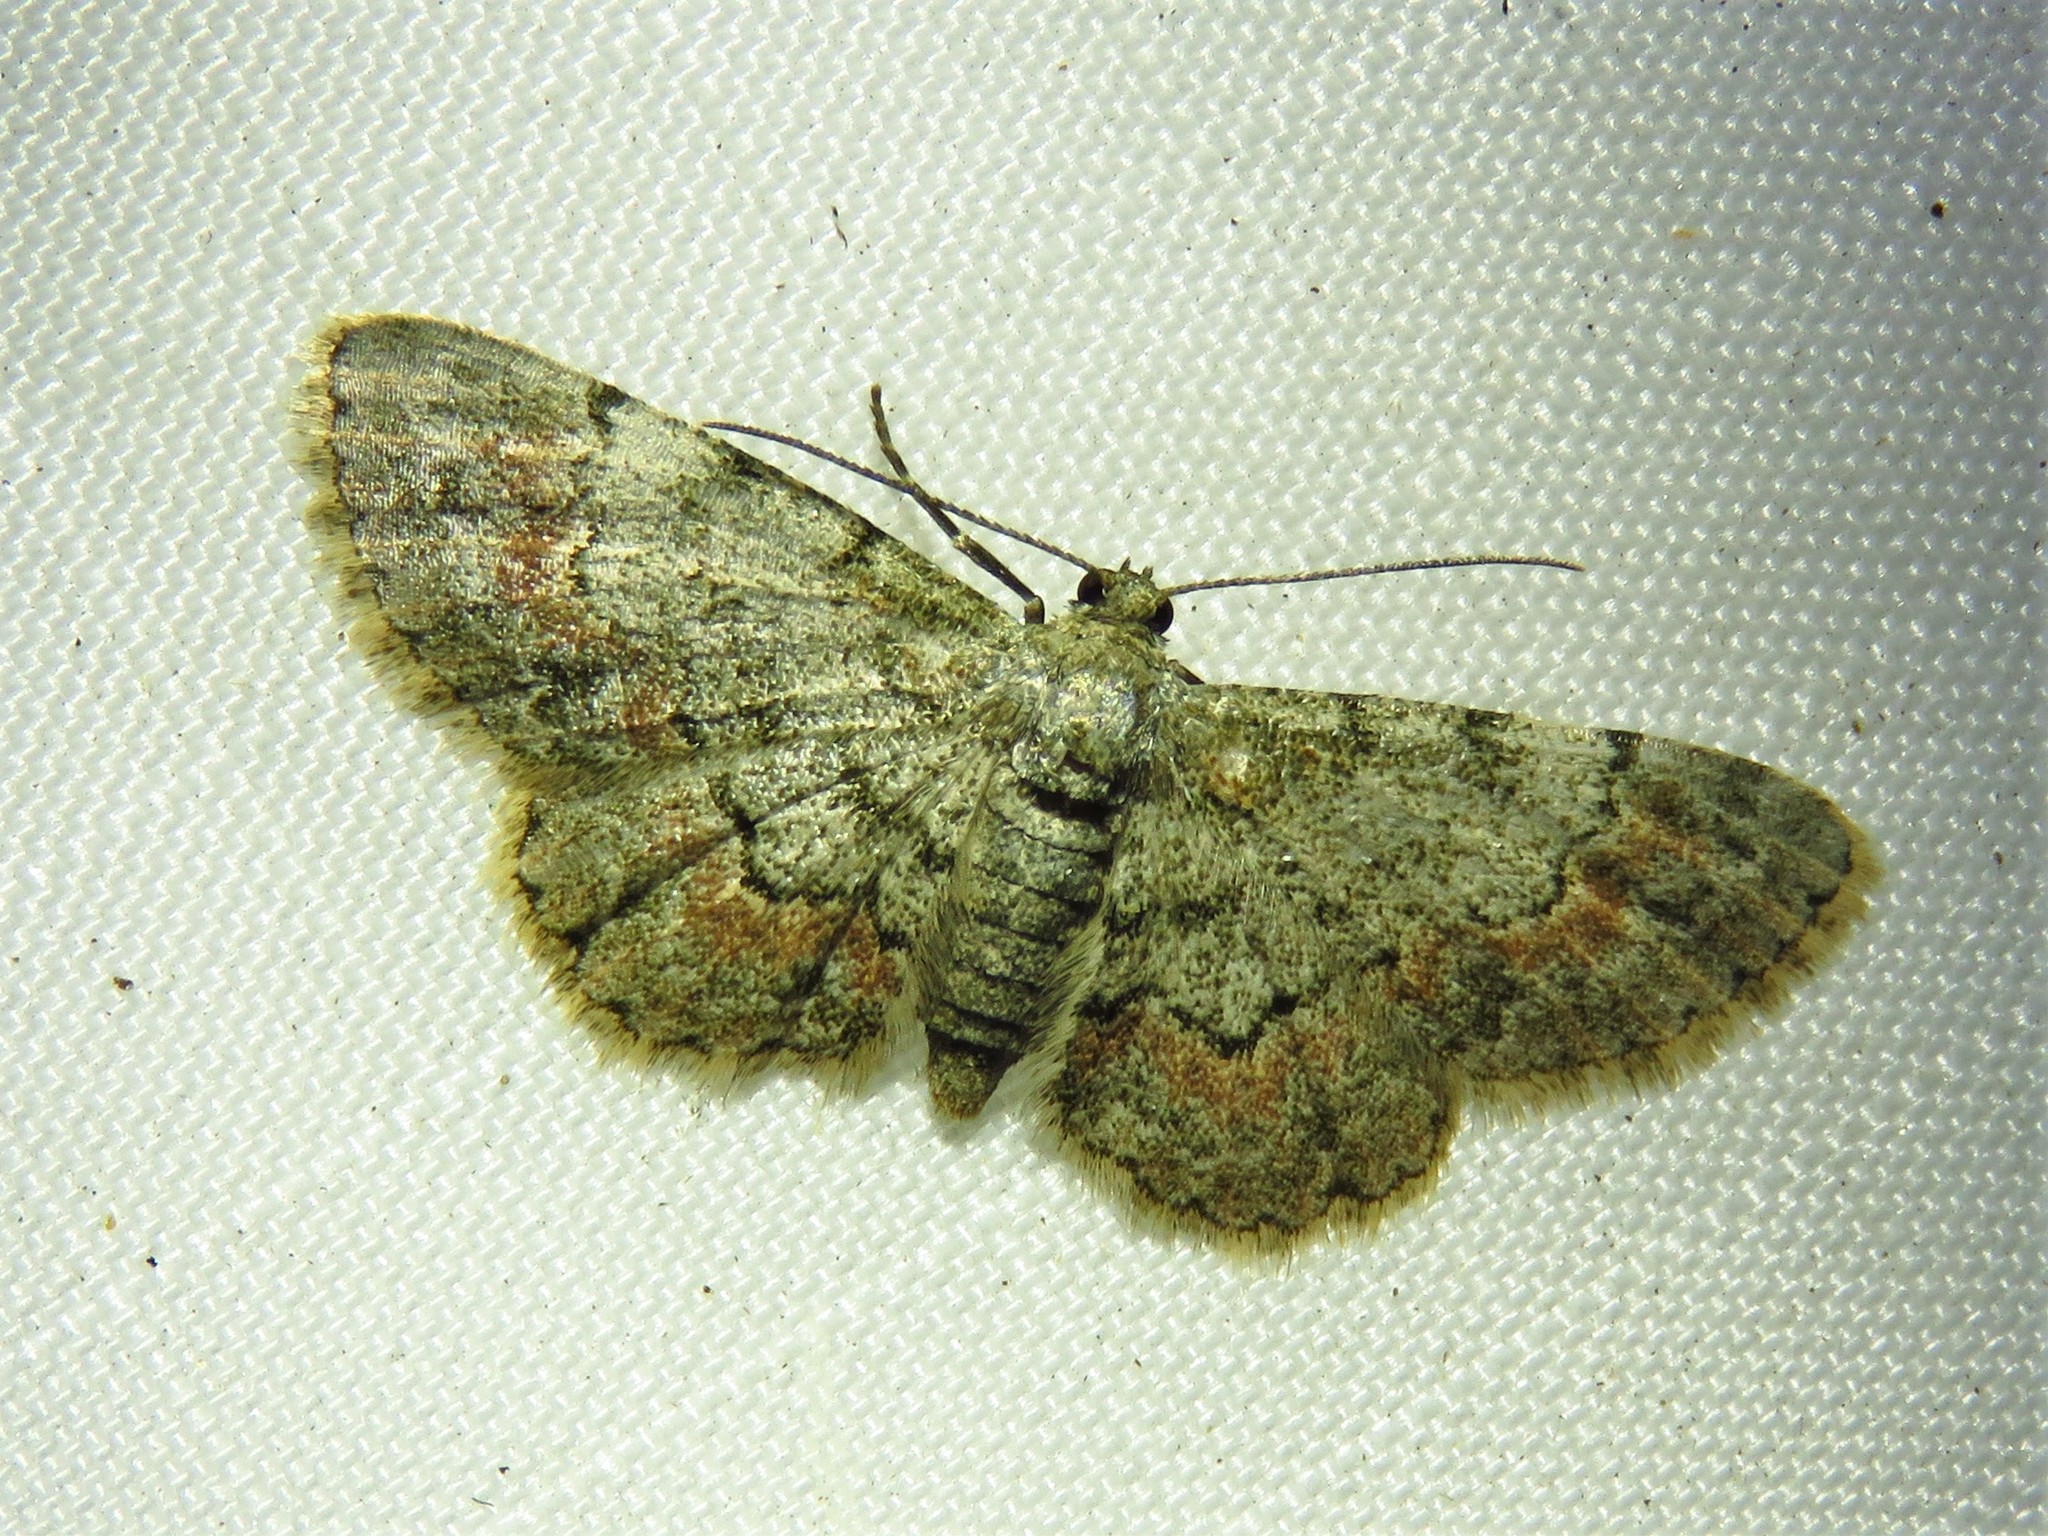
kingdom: Animalia
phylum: Arthropoda
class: Insecta
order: Lepidoptera
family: Geometridae
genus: Glenoides
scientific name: Glenoides texanaria
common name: Texas gray
